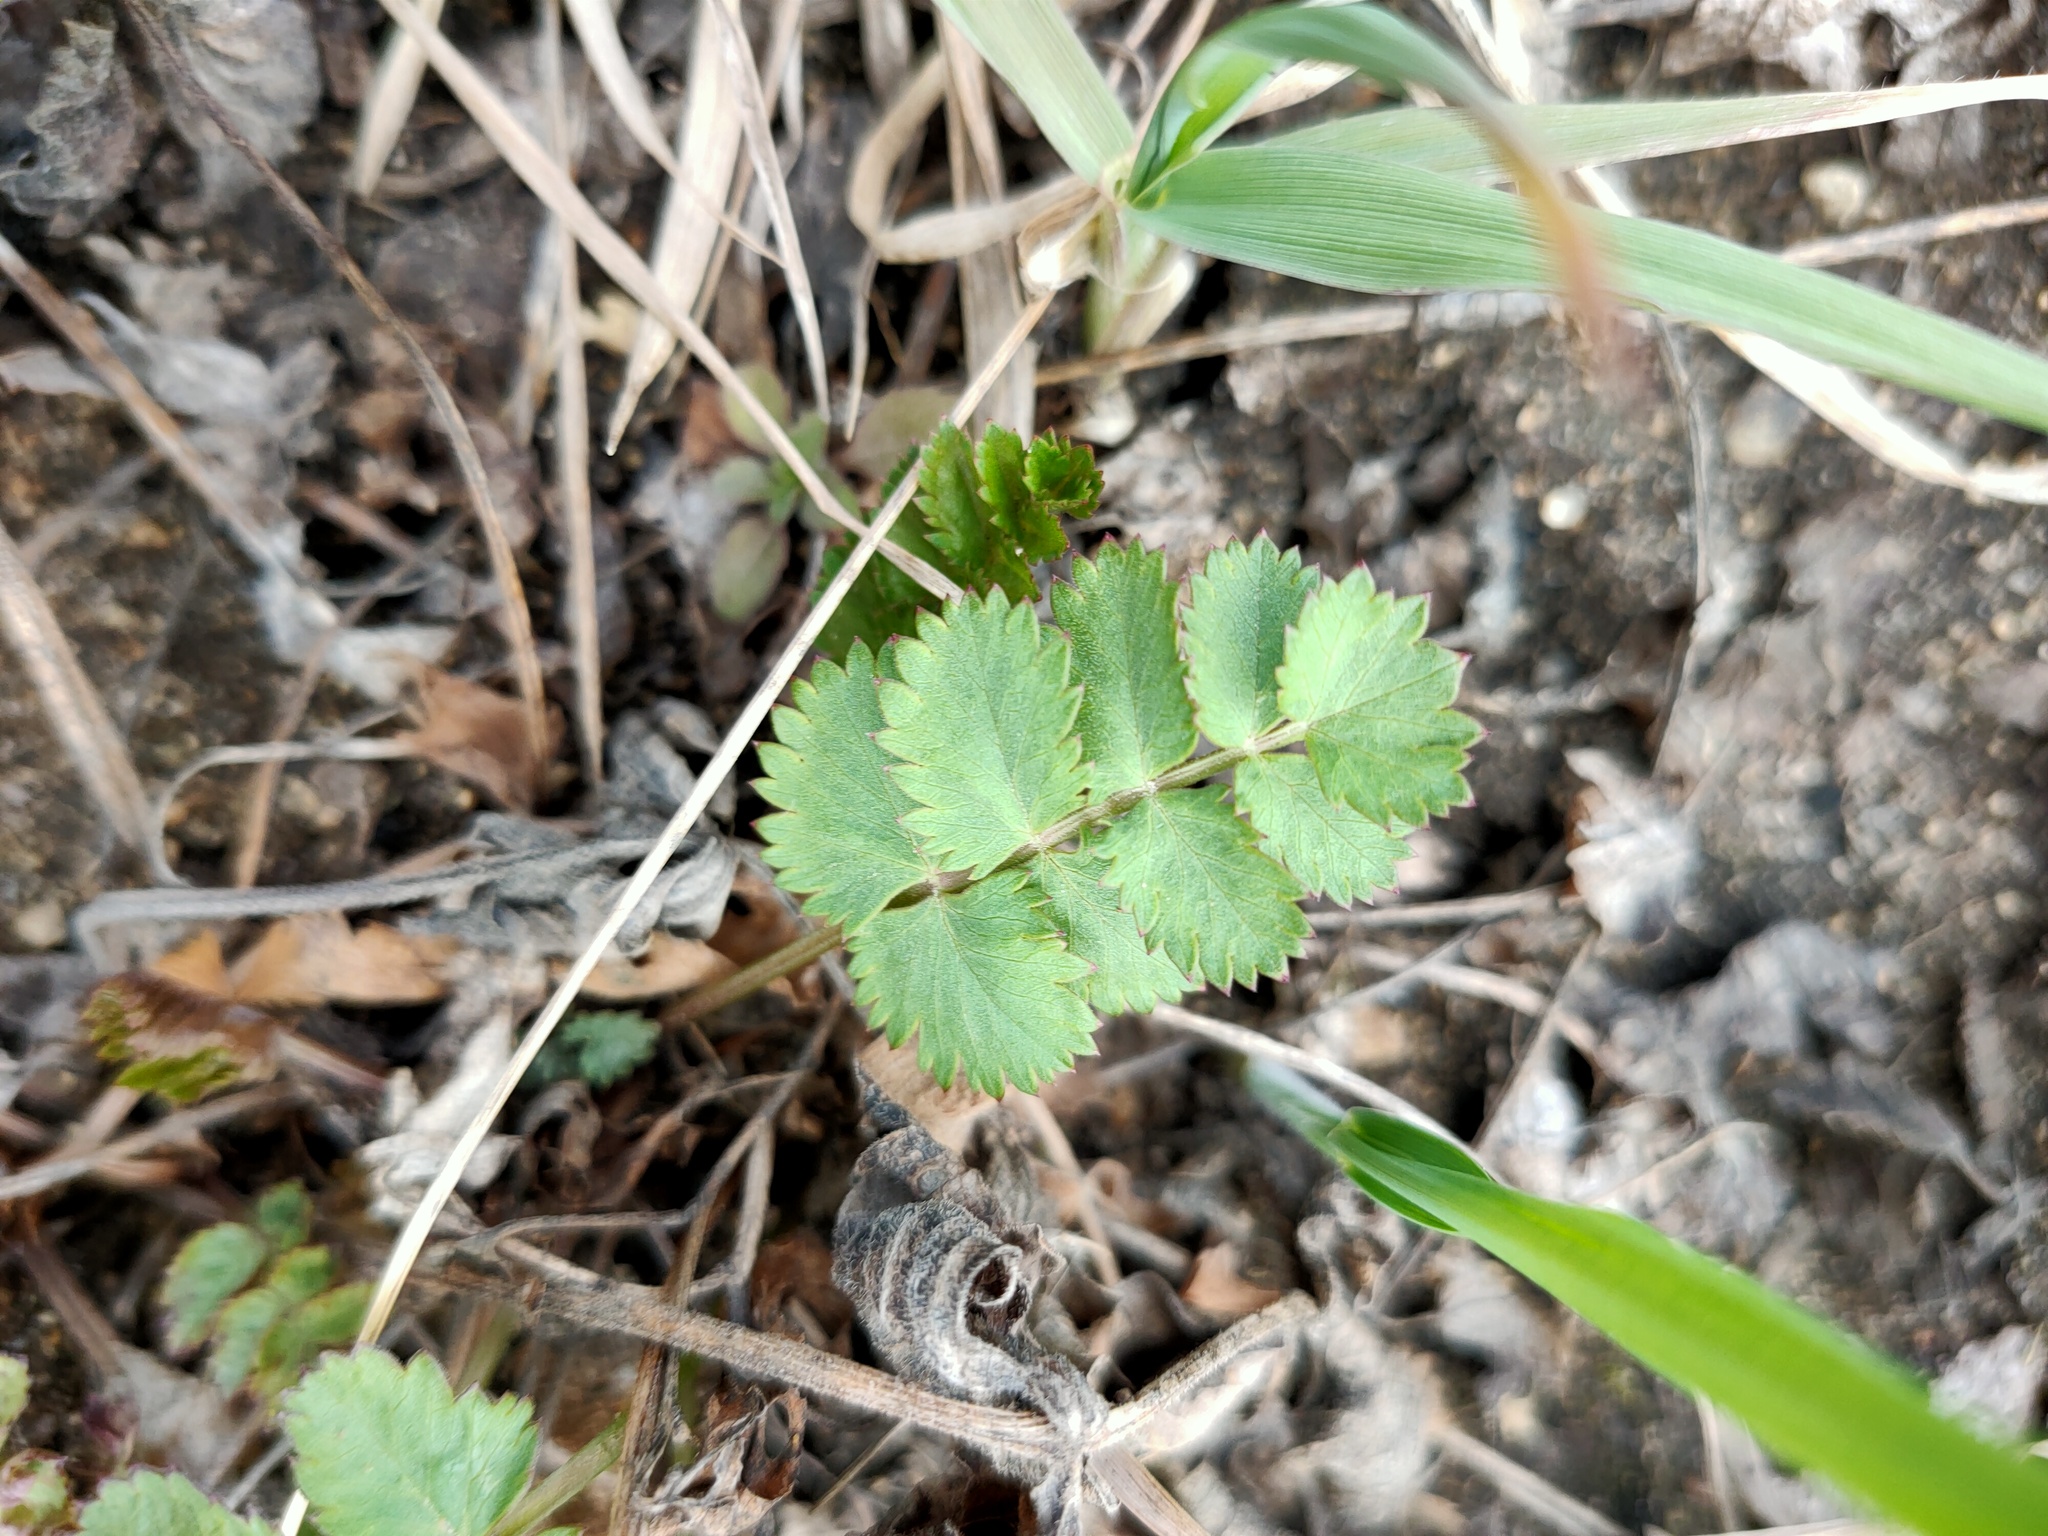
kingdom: Plantae
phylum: Tracheophyta
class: Magnoliopsida
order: Apiales
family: Apiaceae
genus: Pimpinella
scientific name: Pimpinella saxifraga
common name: Burnet-saxifrage
